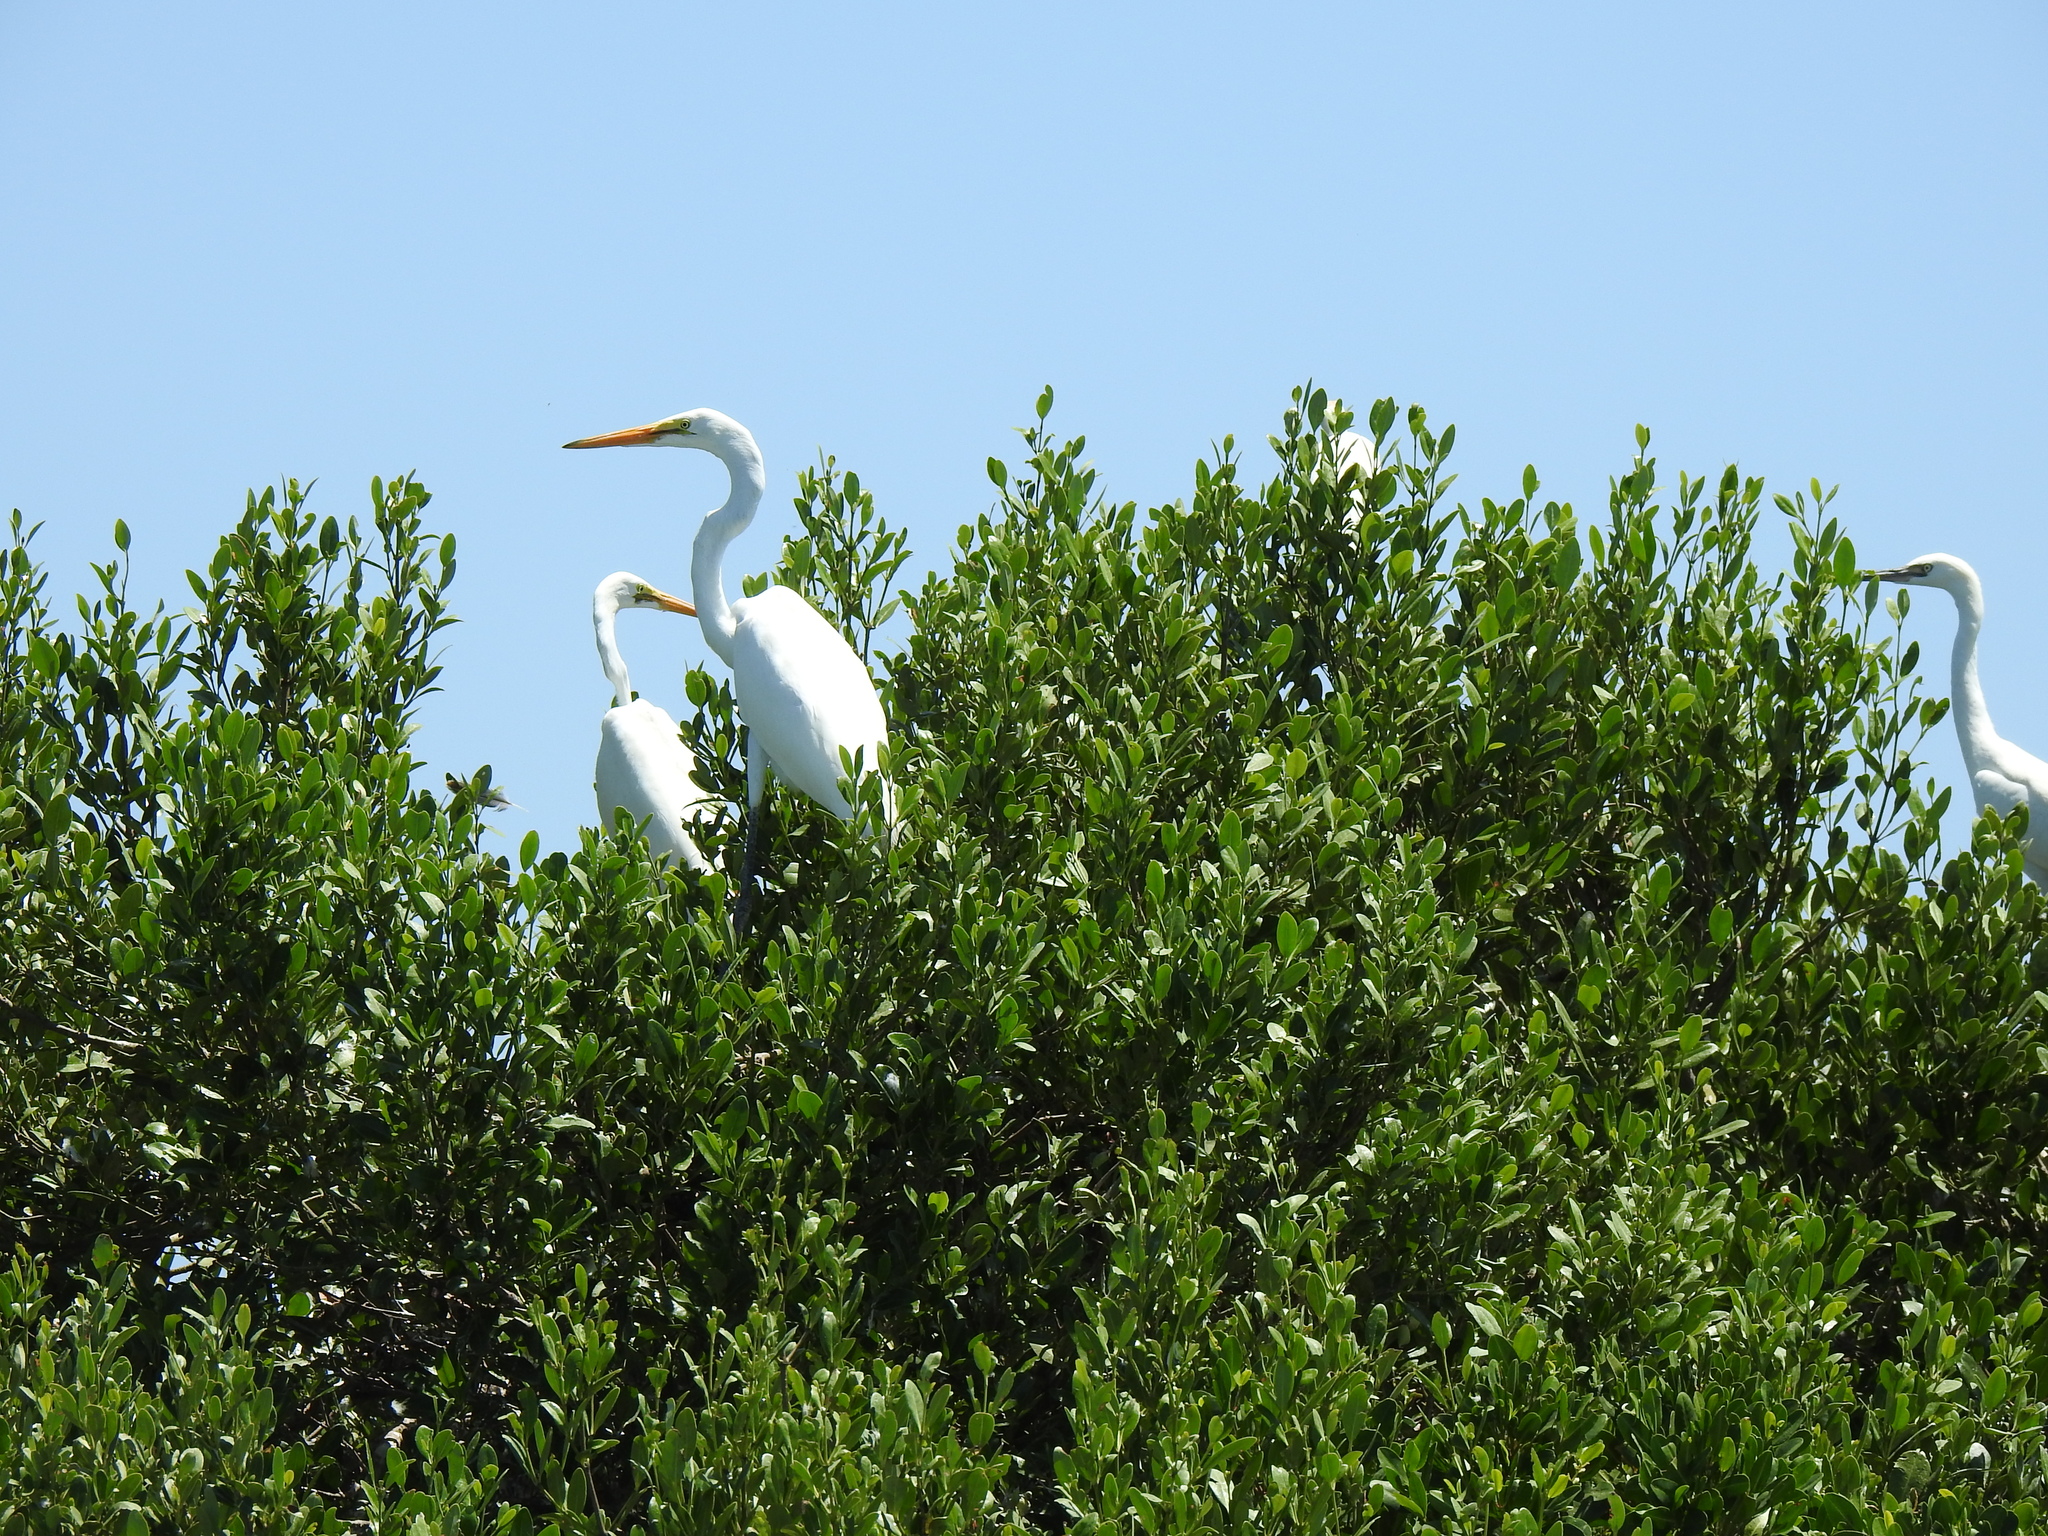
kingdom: Animalia
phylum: Chordata
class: Aves
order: Pelecaniformes
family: Ardeidae
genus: Ardea
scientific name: Ardea alba
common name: Great egret
